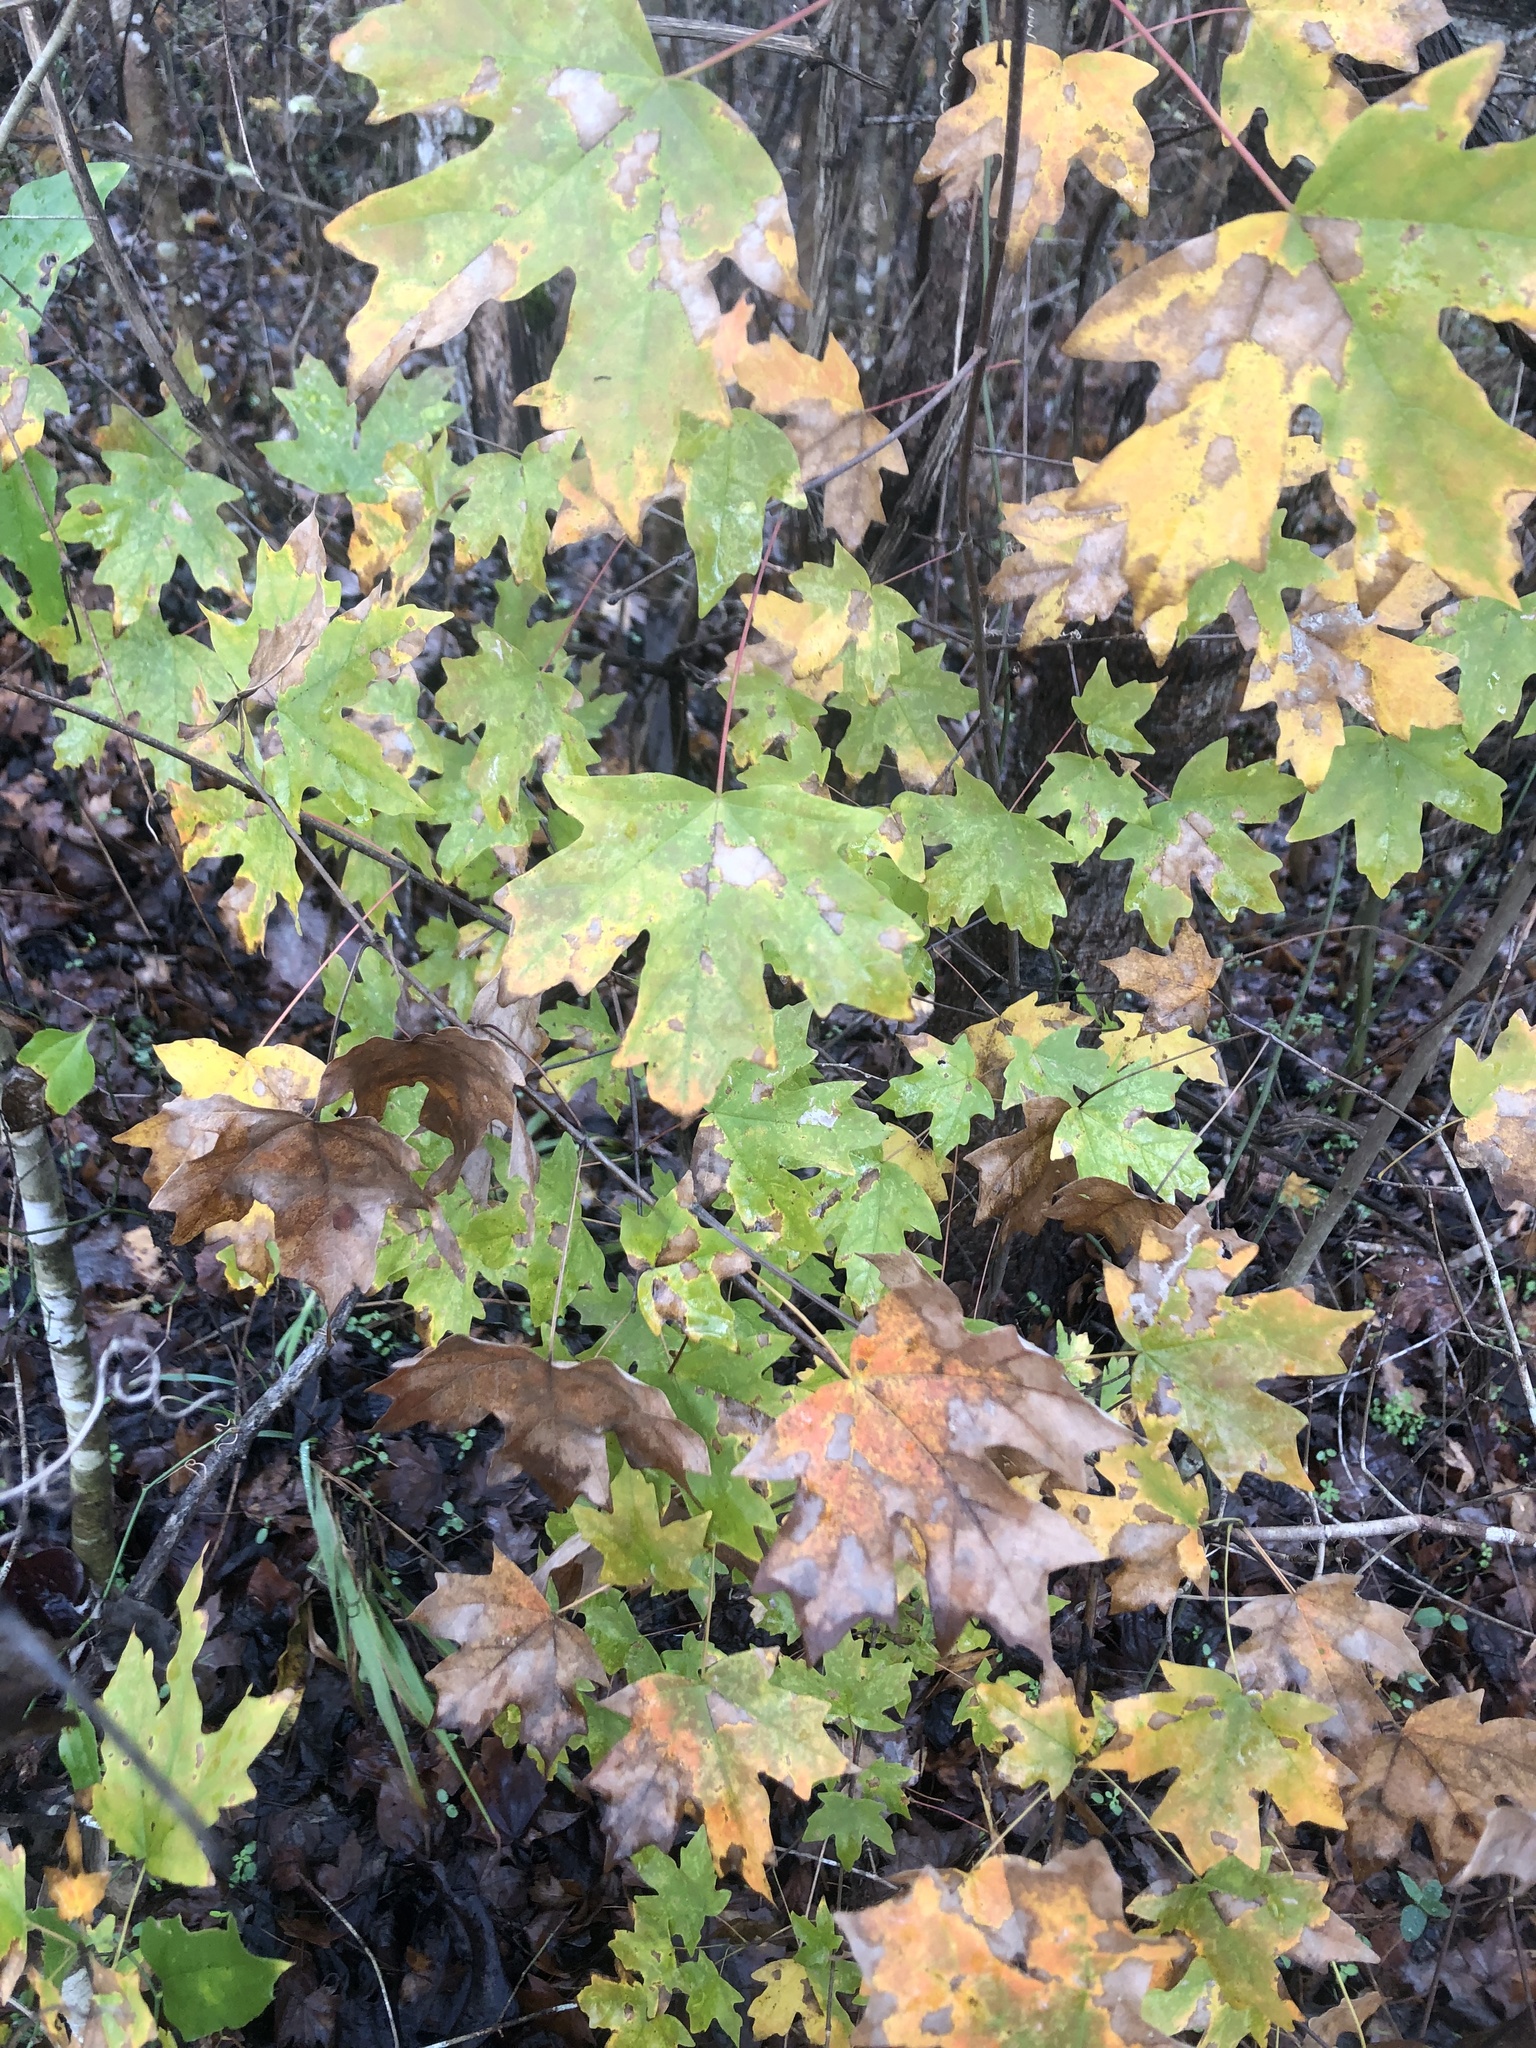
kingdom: Plantae
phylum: Tracheophyta
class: Magnoliopsida
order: Sapindales
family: Sapindaceae
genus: Acer
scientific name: Acer floridanum
